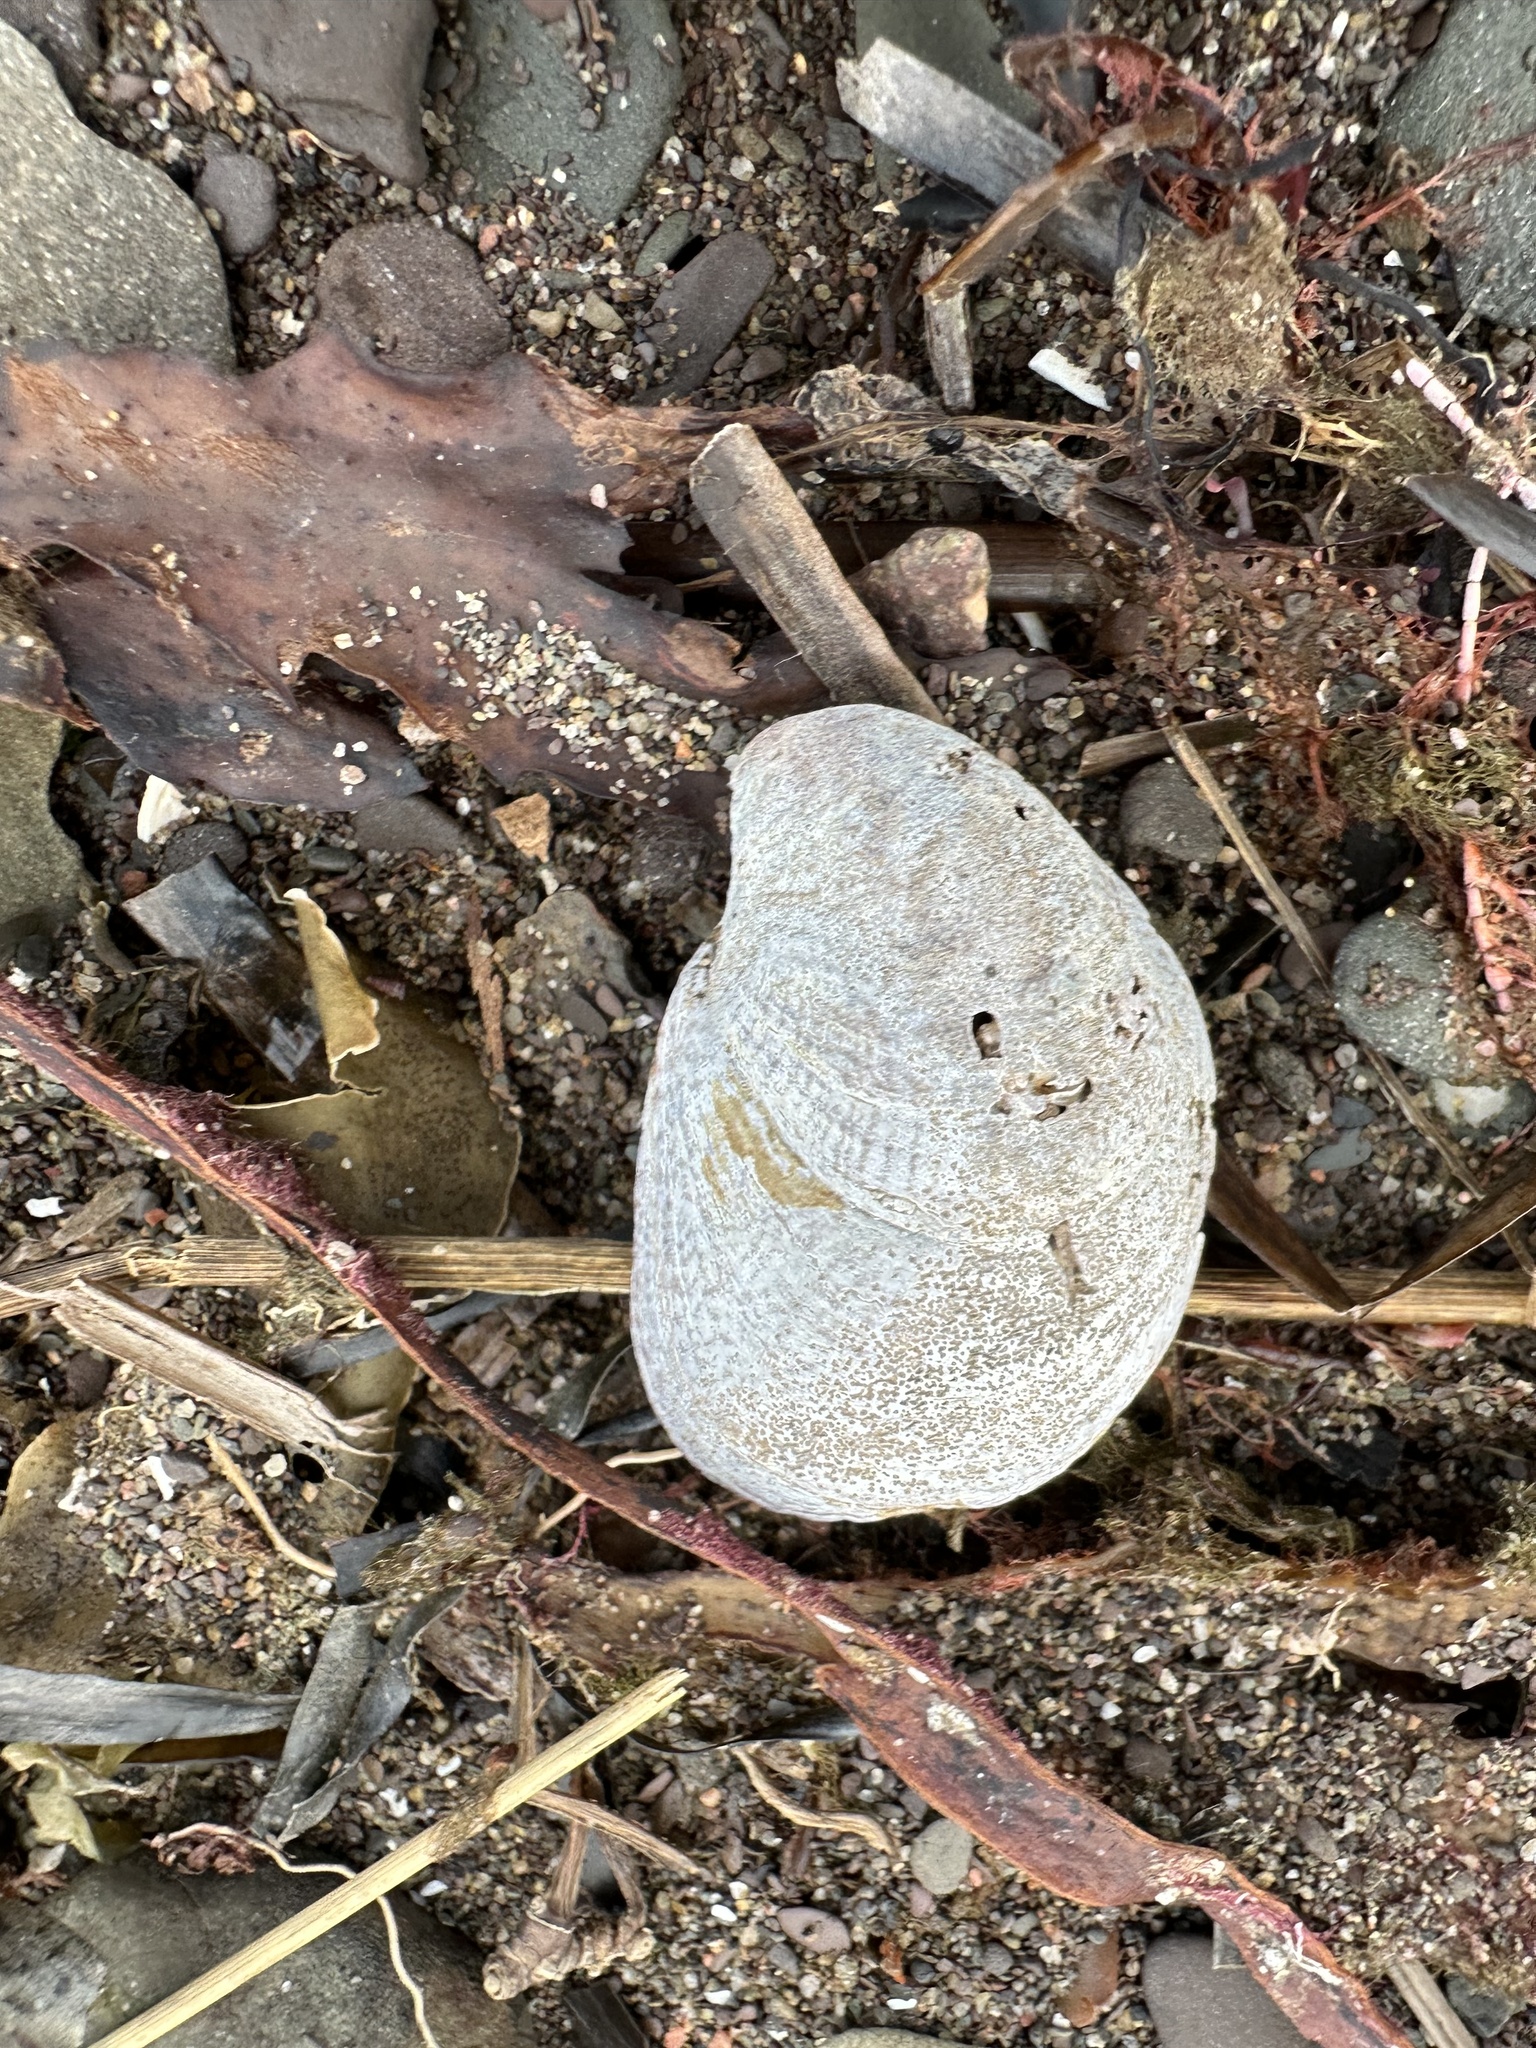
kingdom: Animalia
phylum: Mollusca
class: Gastropoda
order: Littorinimorpha
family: Calyptraeidae
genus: Crepidula
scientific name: Crepidula fornicata
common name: Slipper limpet
